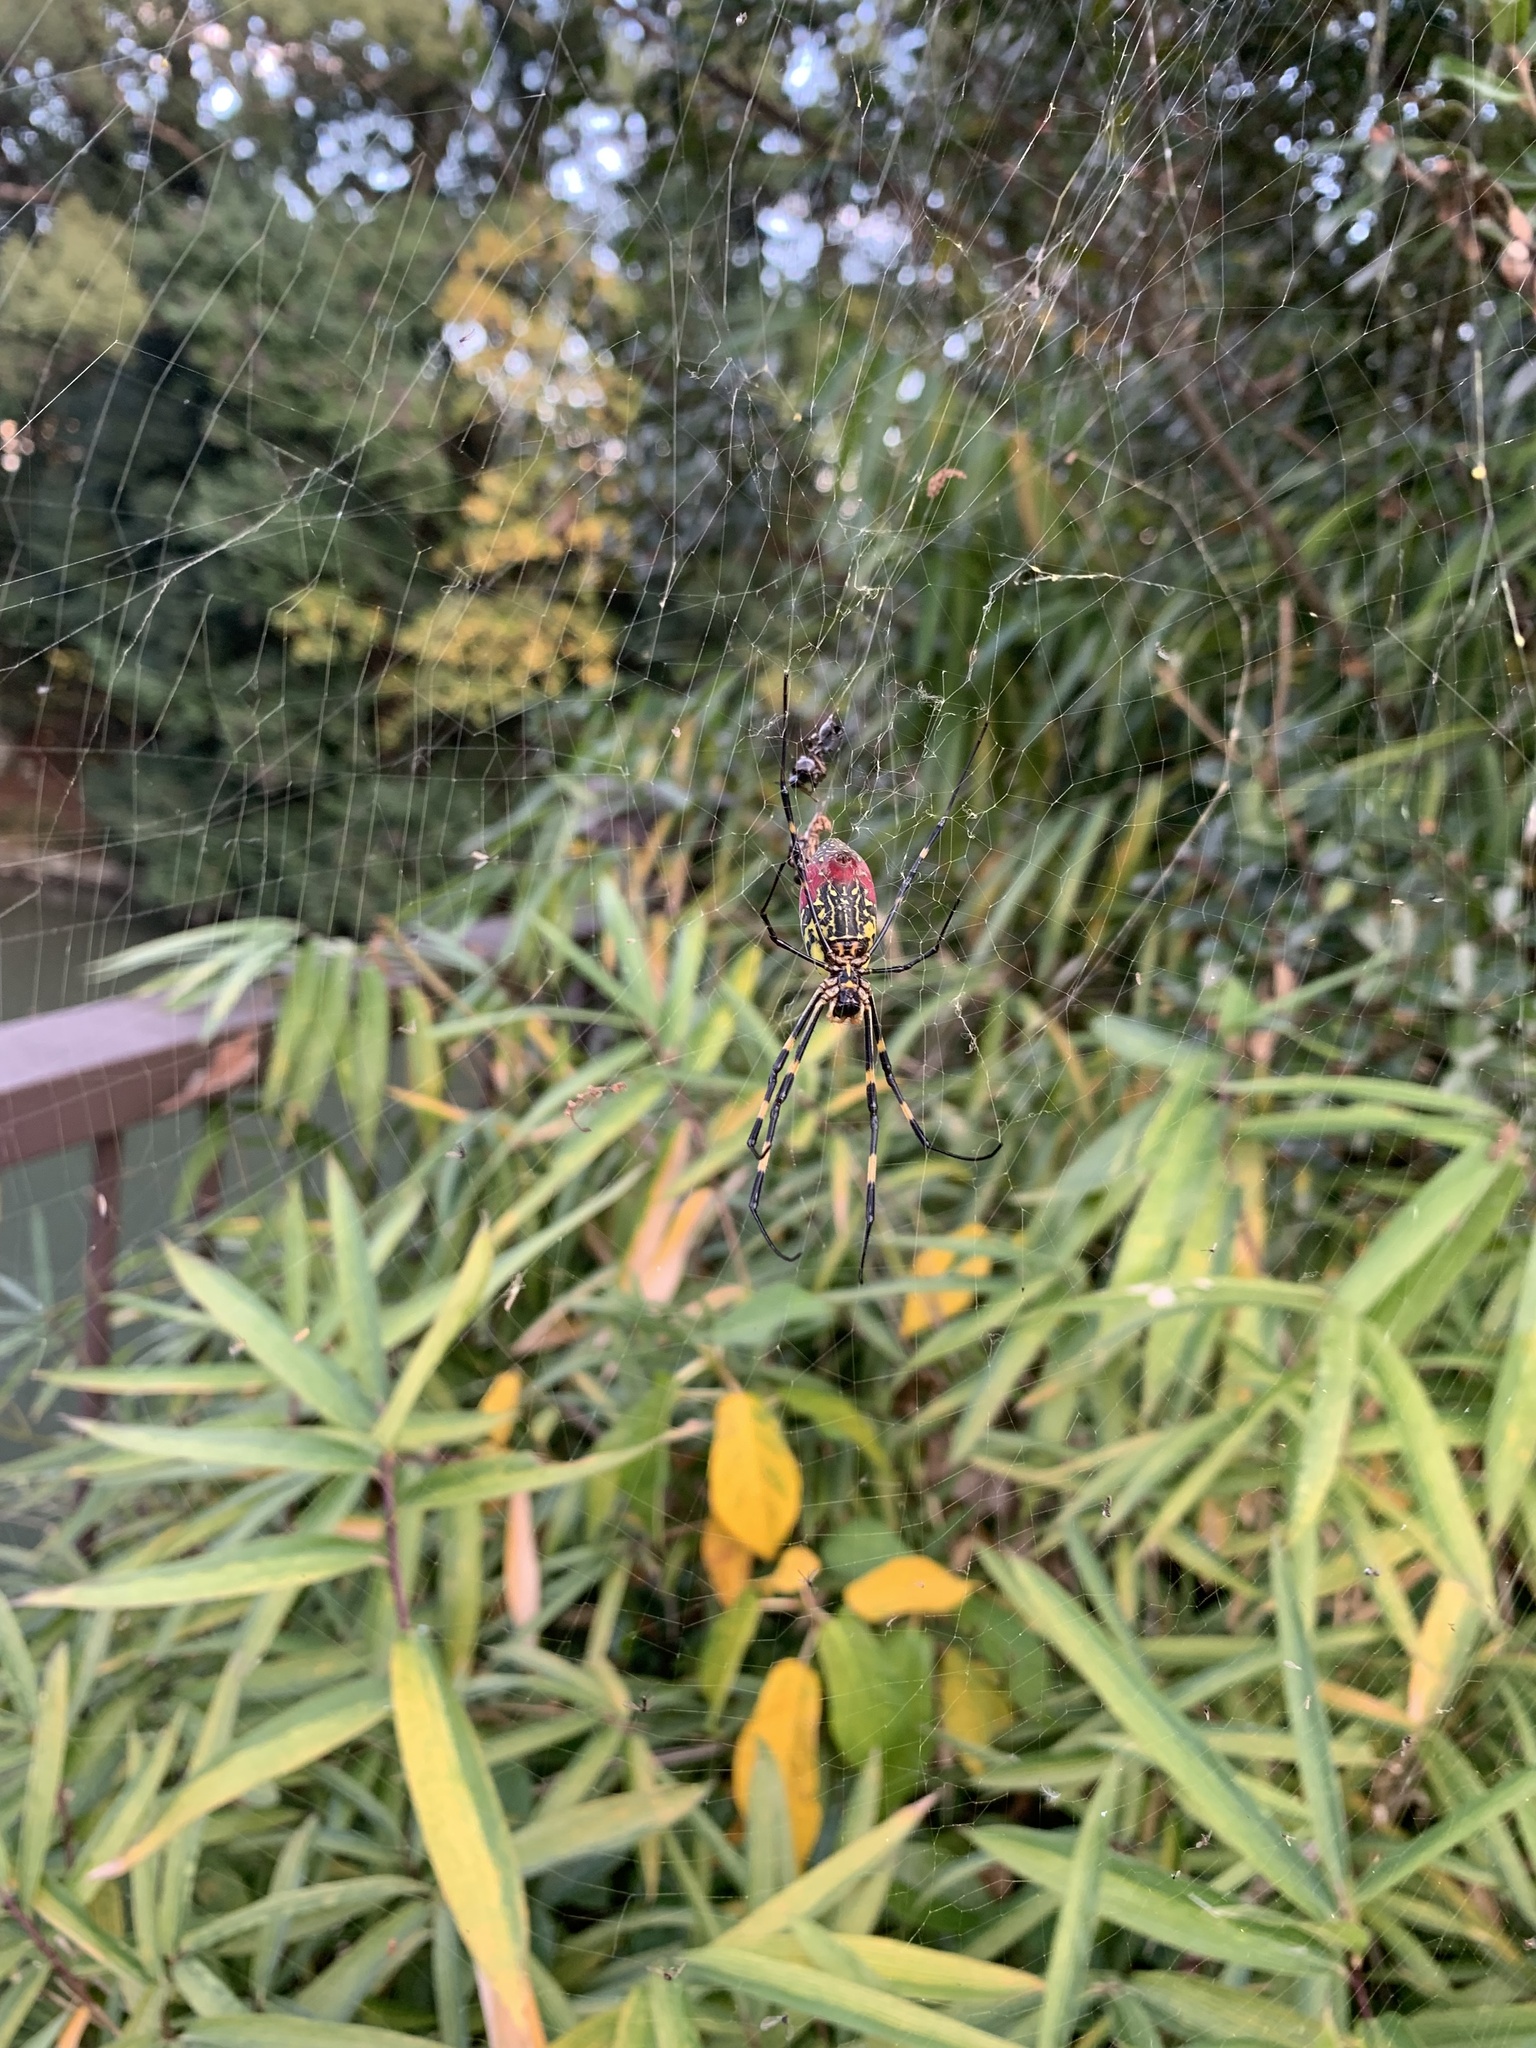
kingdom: Animalia
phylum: Arthropoda
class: Arachnida
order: Araneae
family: Araneidae
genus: Trichonephila
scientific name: Trichonephila clavata
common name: Jorō spider
